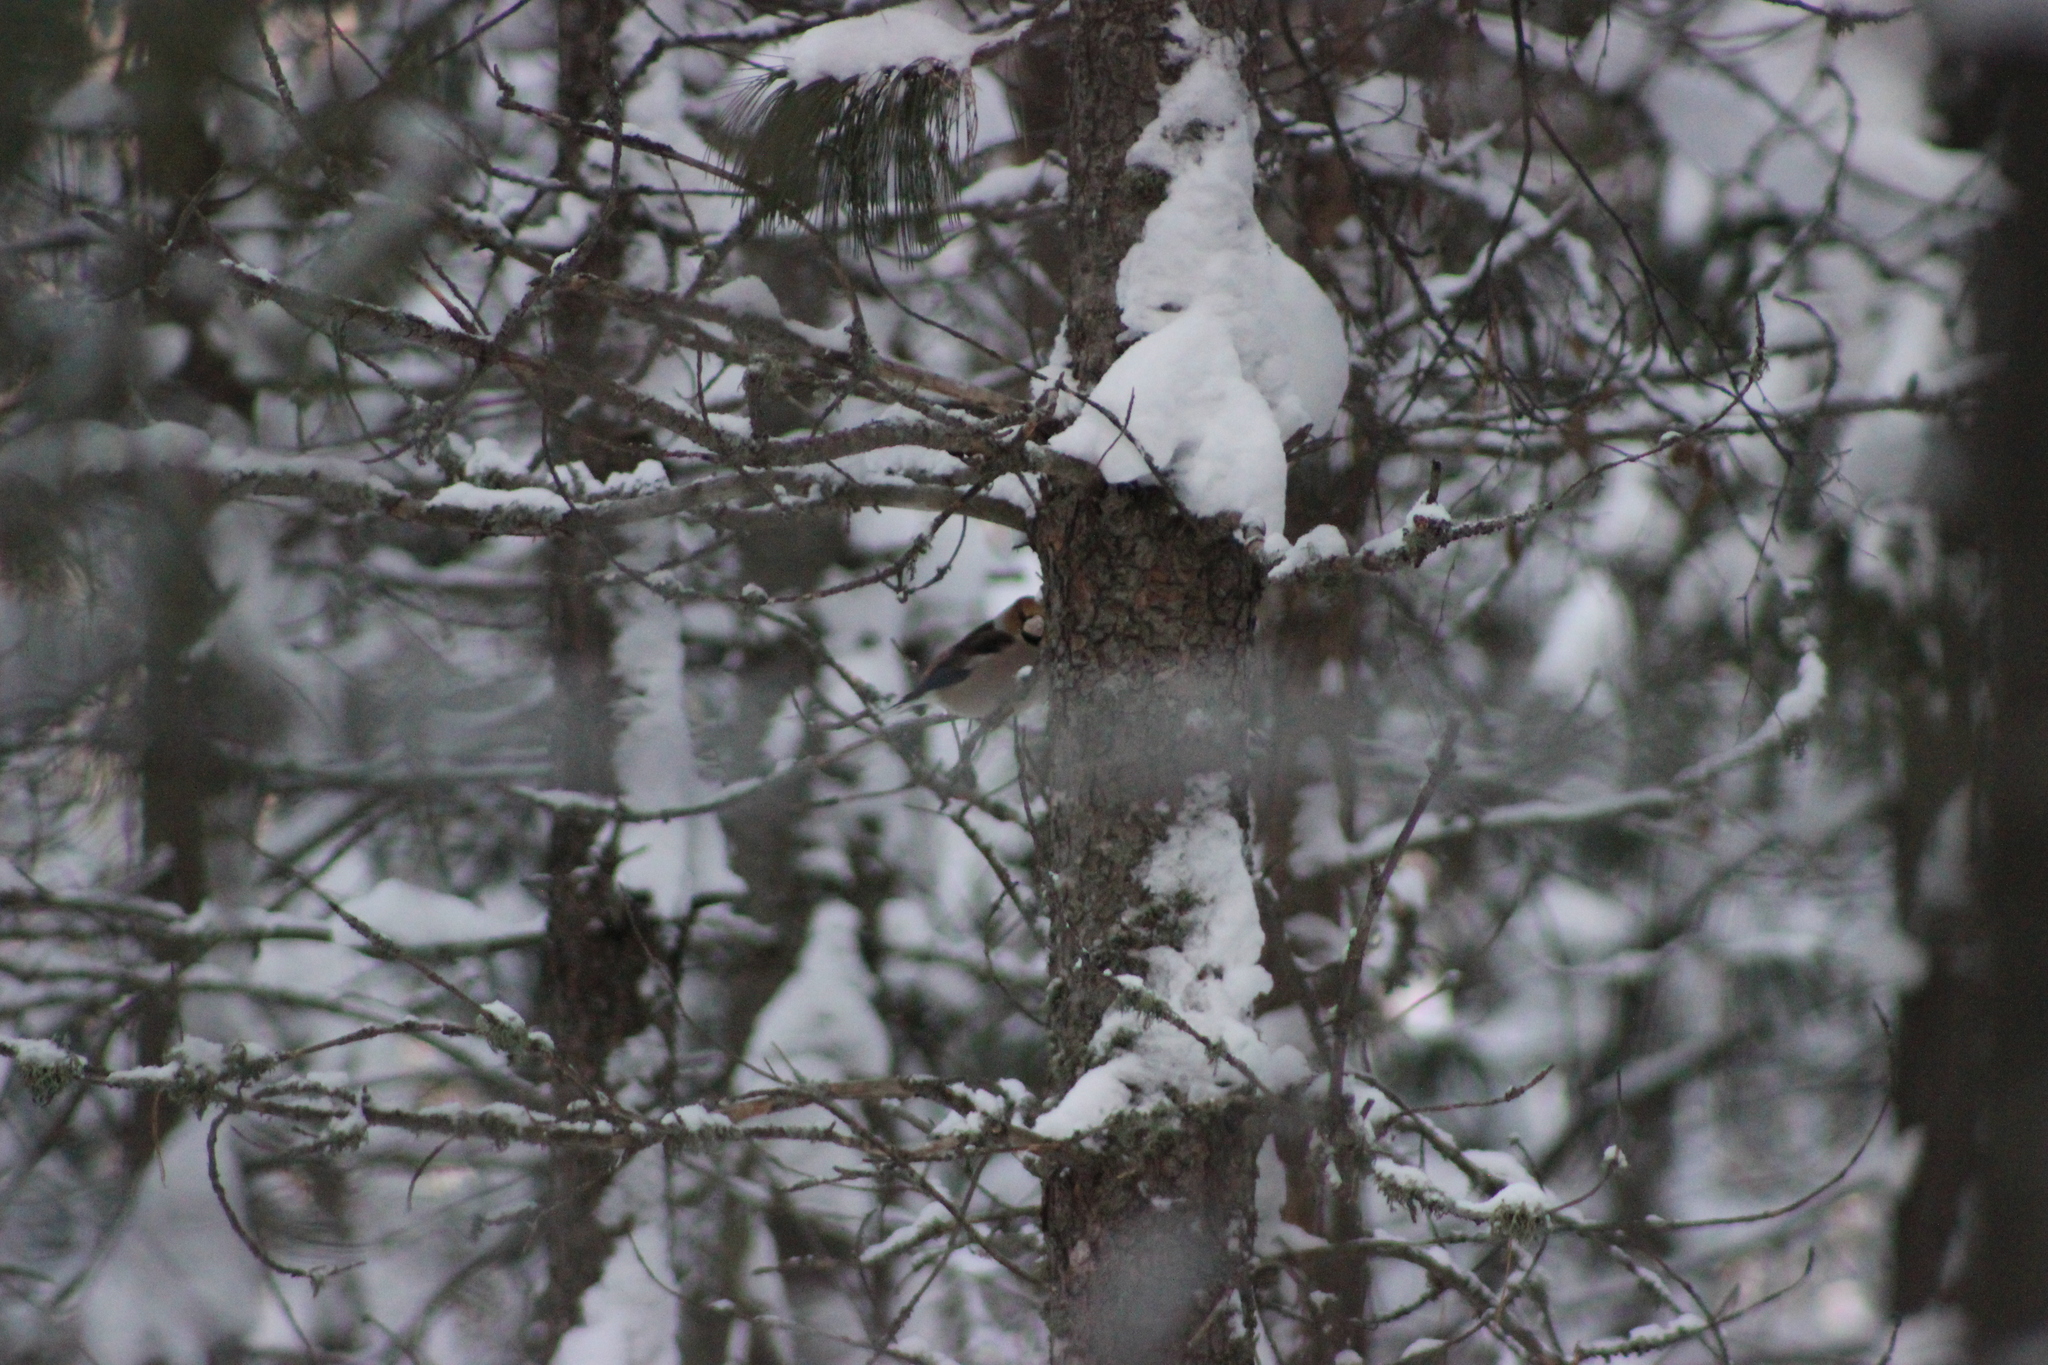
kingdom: Animalia
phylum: Chordata
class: Aves
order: Passeriformes
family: Fringillidae
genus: Coccothraustes
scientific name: Coccothraustes coccothraustes
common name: Hawfinch
